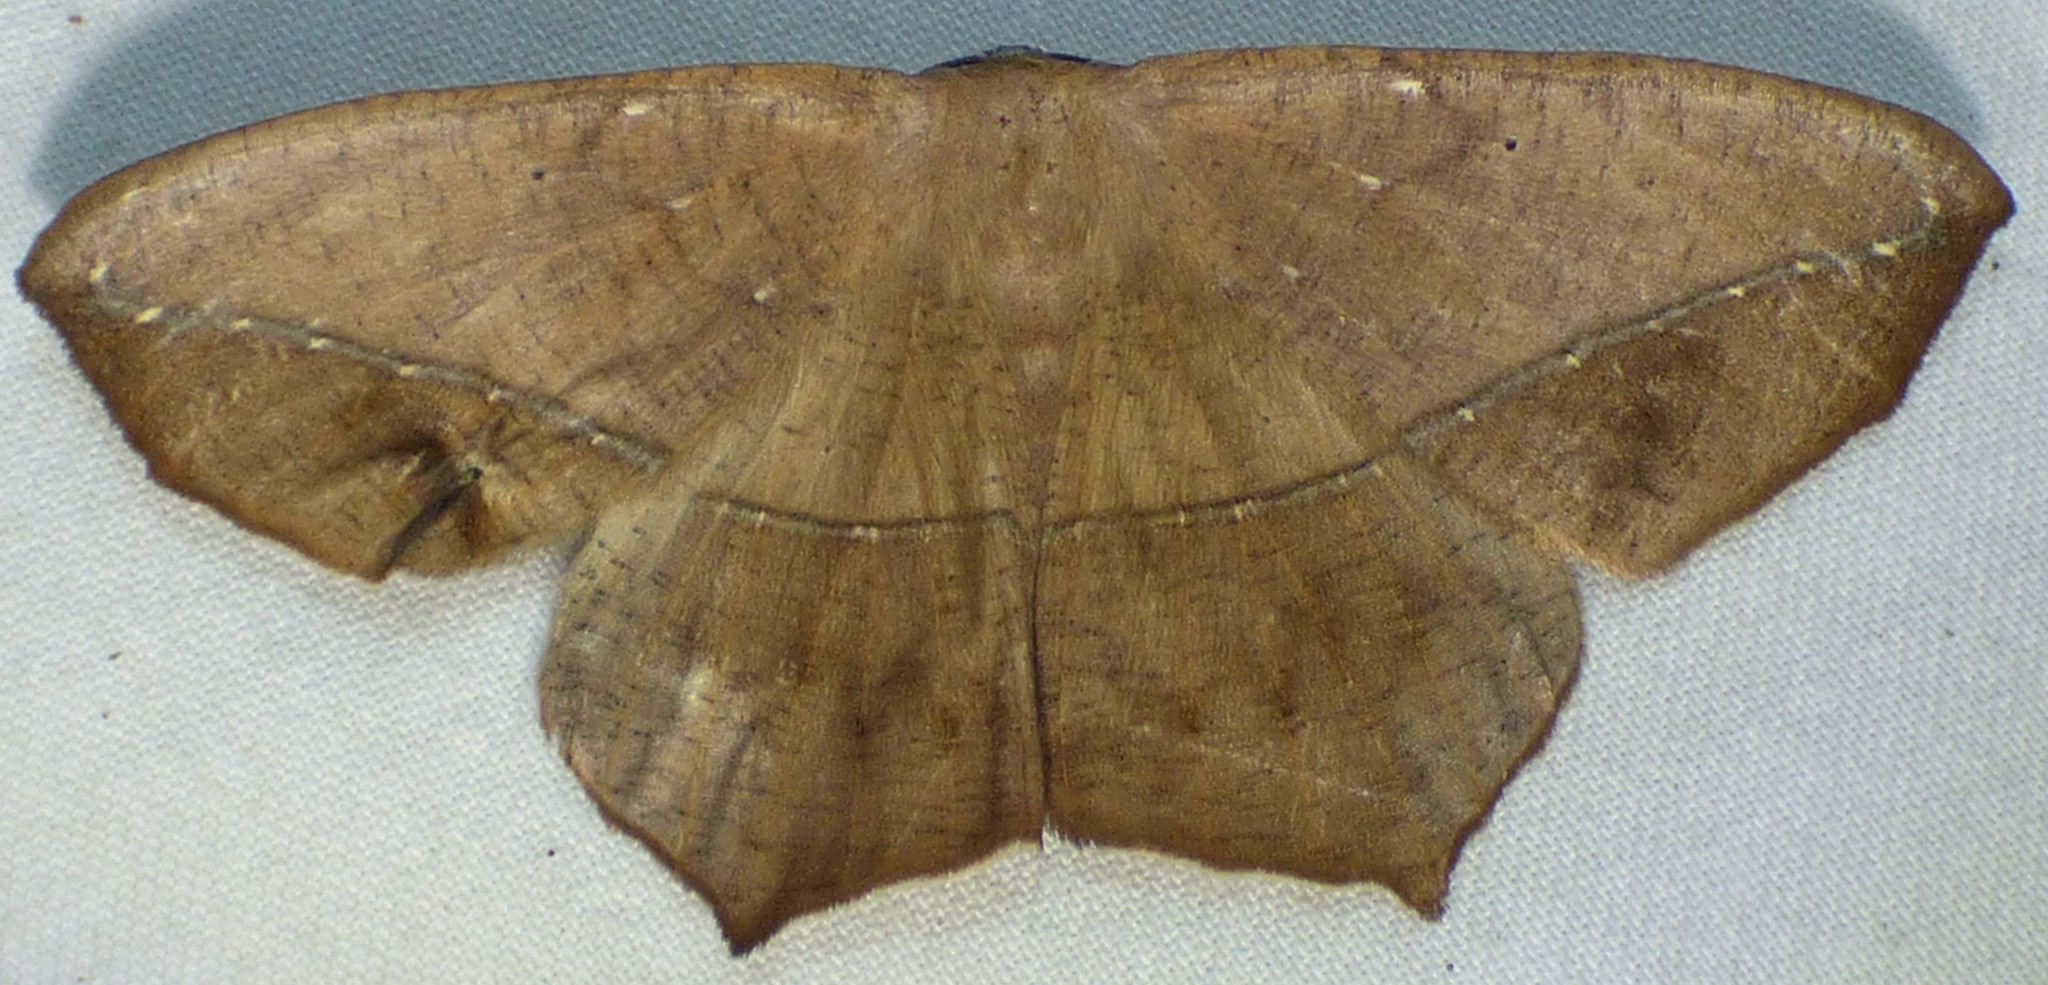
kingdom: Animalia
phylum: Arthropoda
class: Insecta
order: Lepidoptera
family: Geometridae
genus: Prochoerodes
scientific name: Prochoerodes lineola
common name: Large maple spanworm
